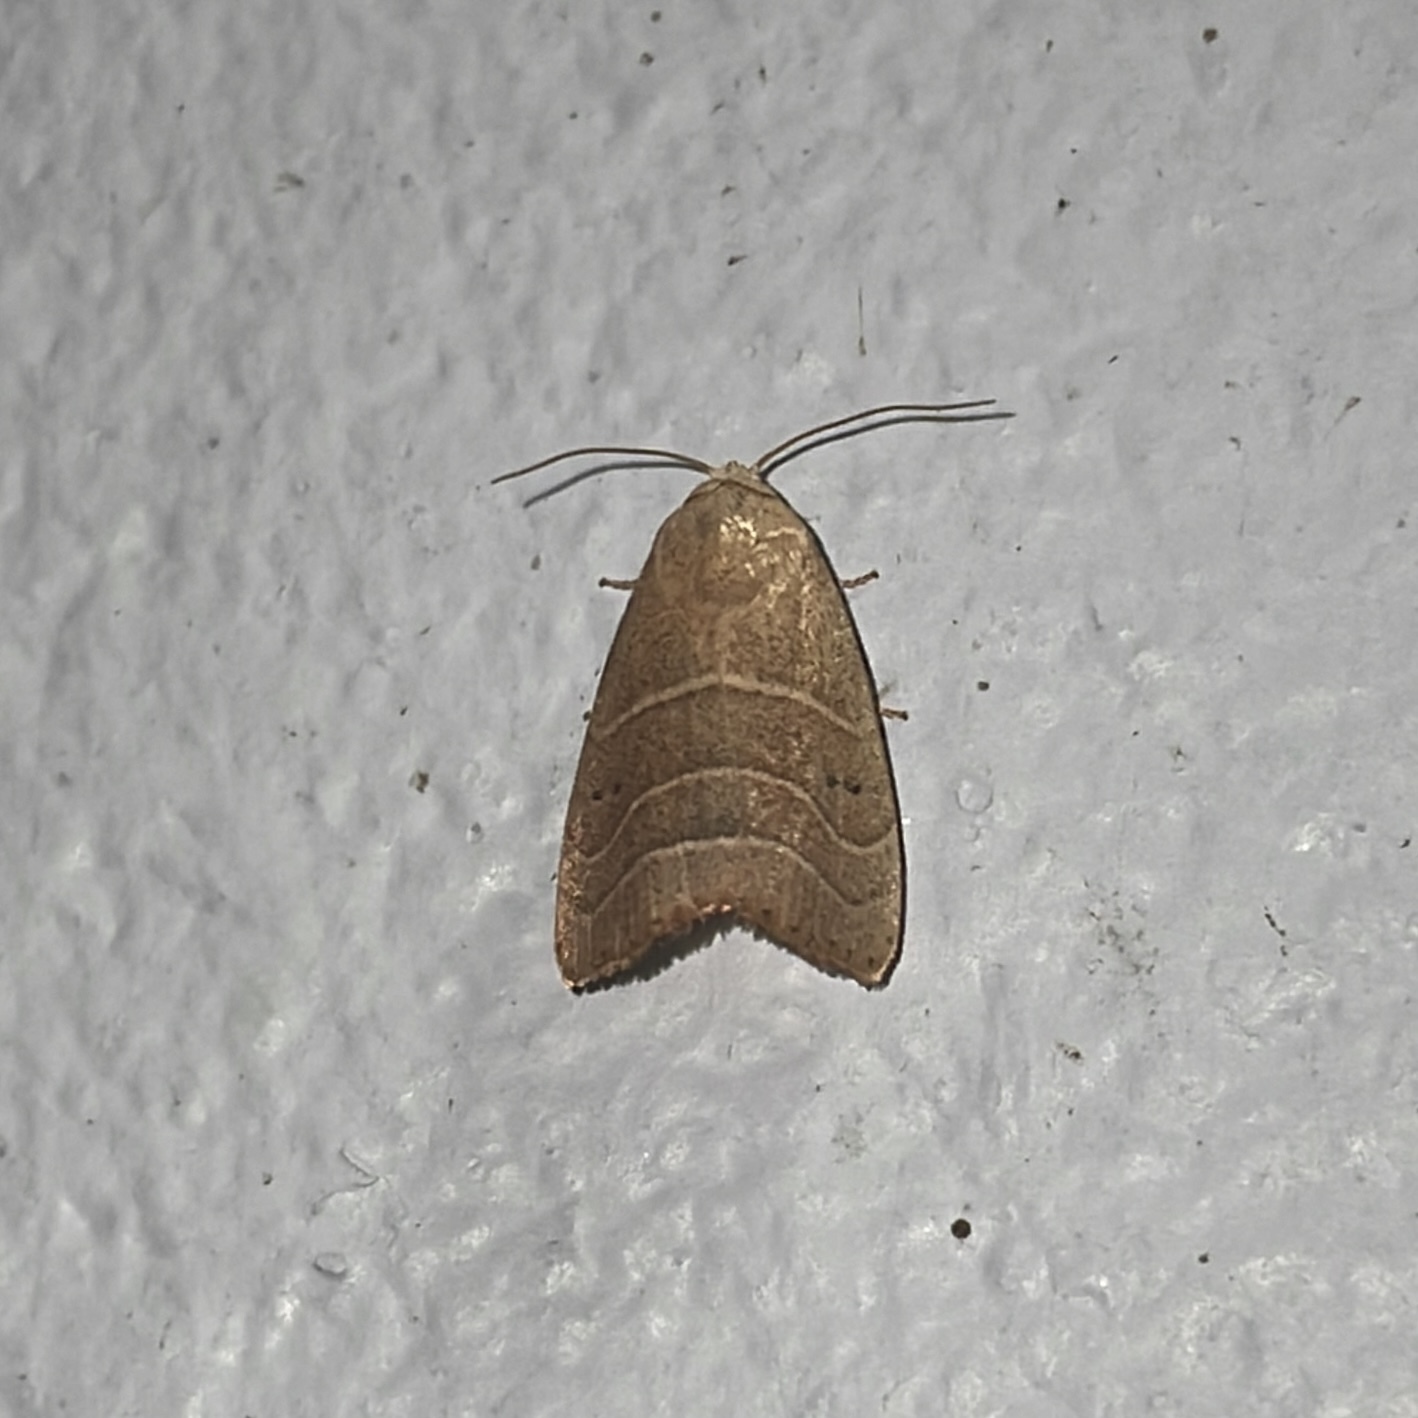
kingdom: Animalia
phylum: Arthropoda
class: Insecta
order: Lepidoptera
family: Noctuidae
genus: Bagisara
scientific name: Bagisara repanda
